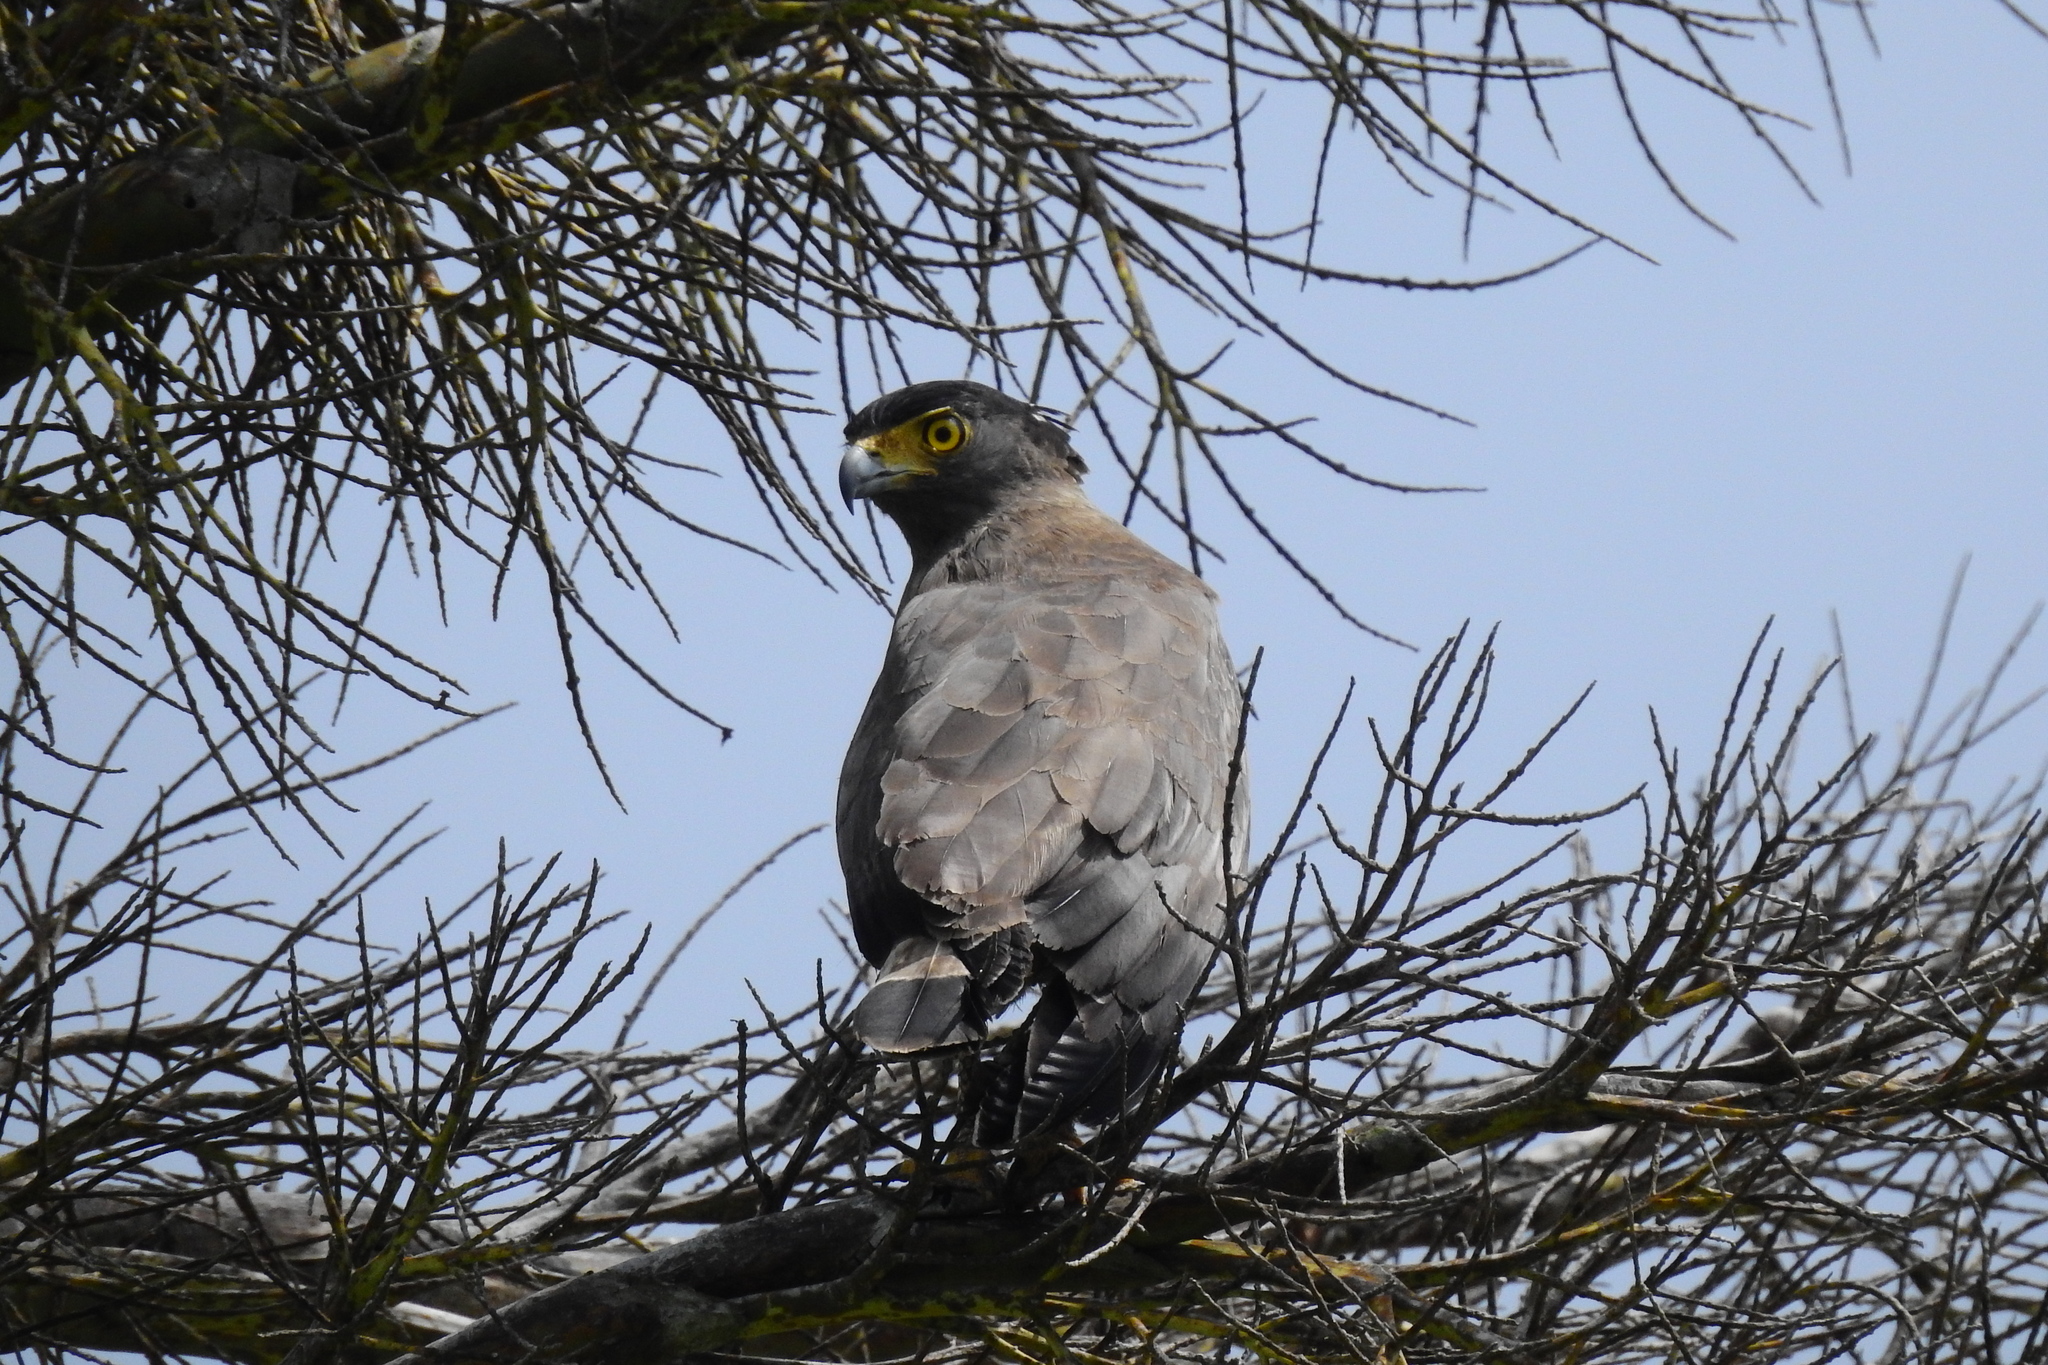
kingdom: Animalia
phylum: Chordata
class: Aves
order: Accipitriformes
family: Accipitridae
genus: Spilornis
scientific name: Spilornis cheela
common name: Crested serpent eagle
